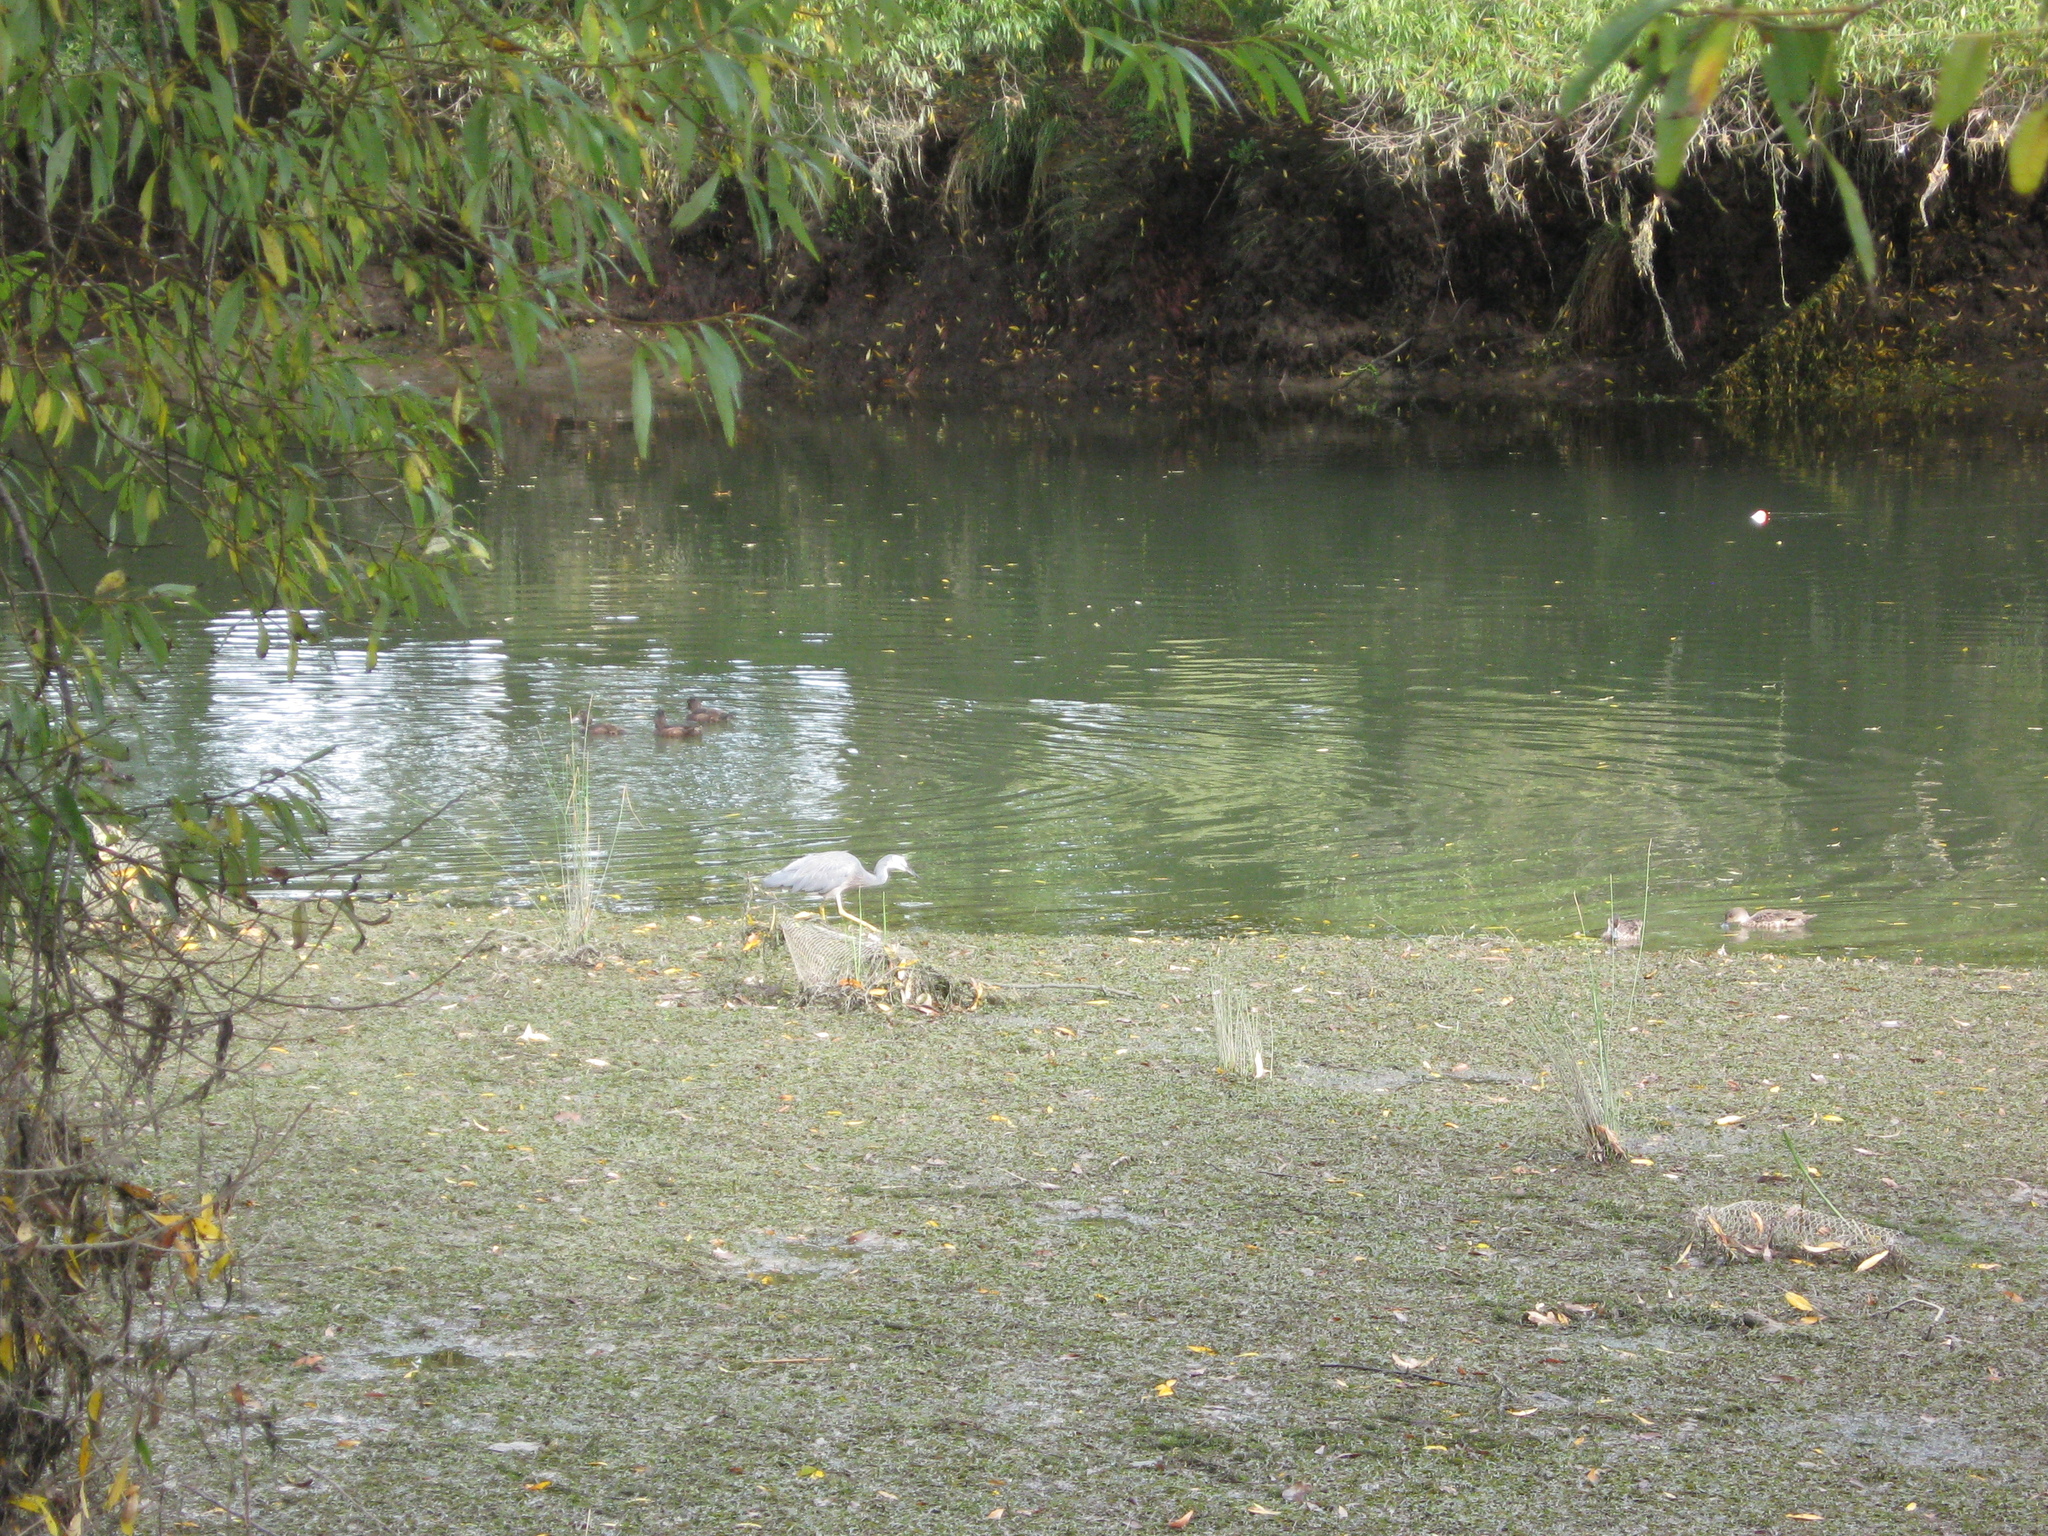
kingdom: Animalia
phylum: Chordata
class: Aves
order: Pelecaniformes
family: Ardeidae
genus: Egretta
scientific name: Egretta novaehollandiae
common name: White-faced heron
